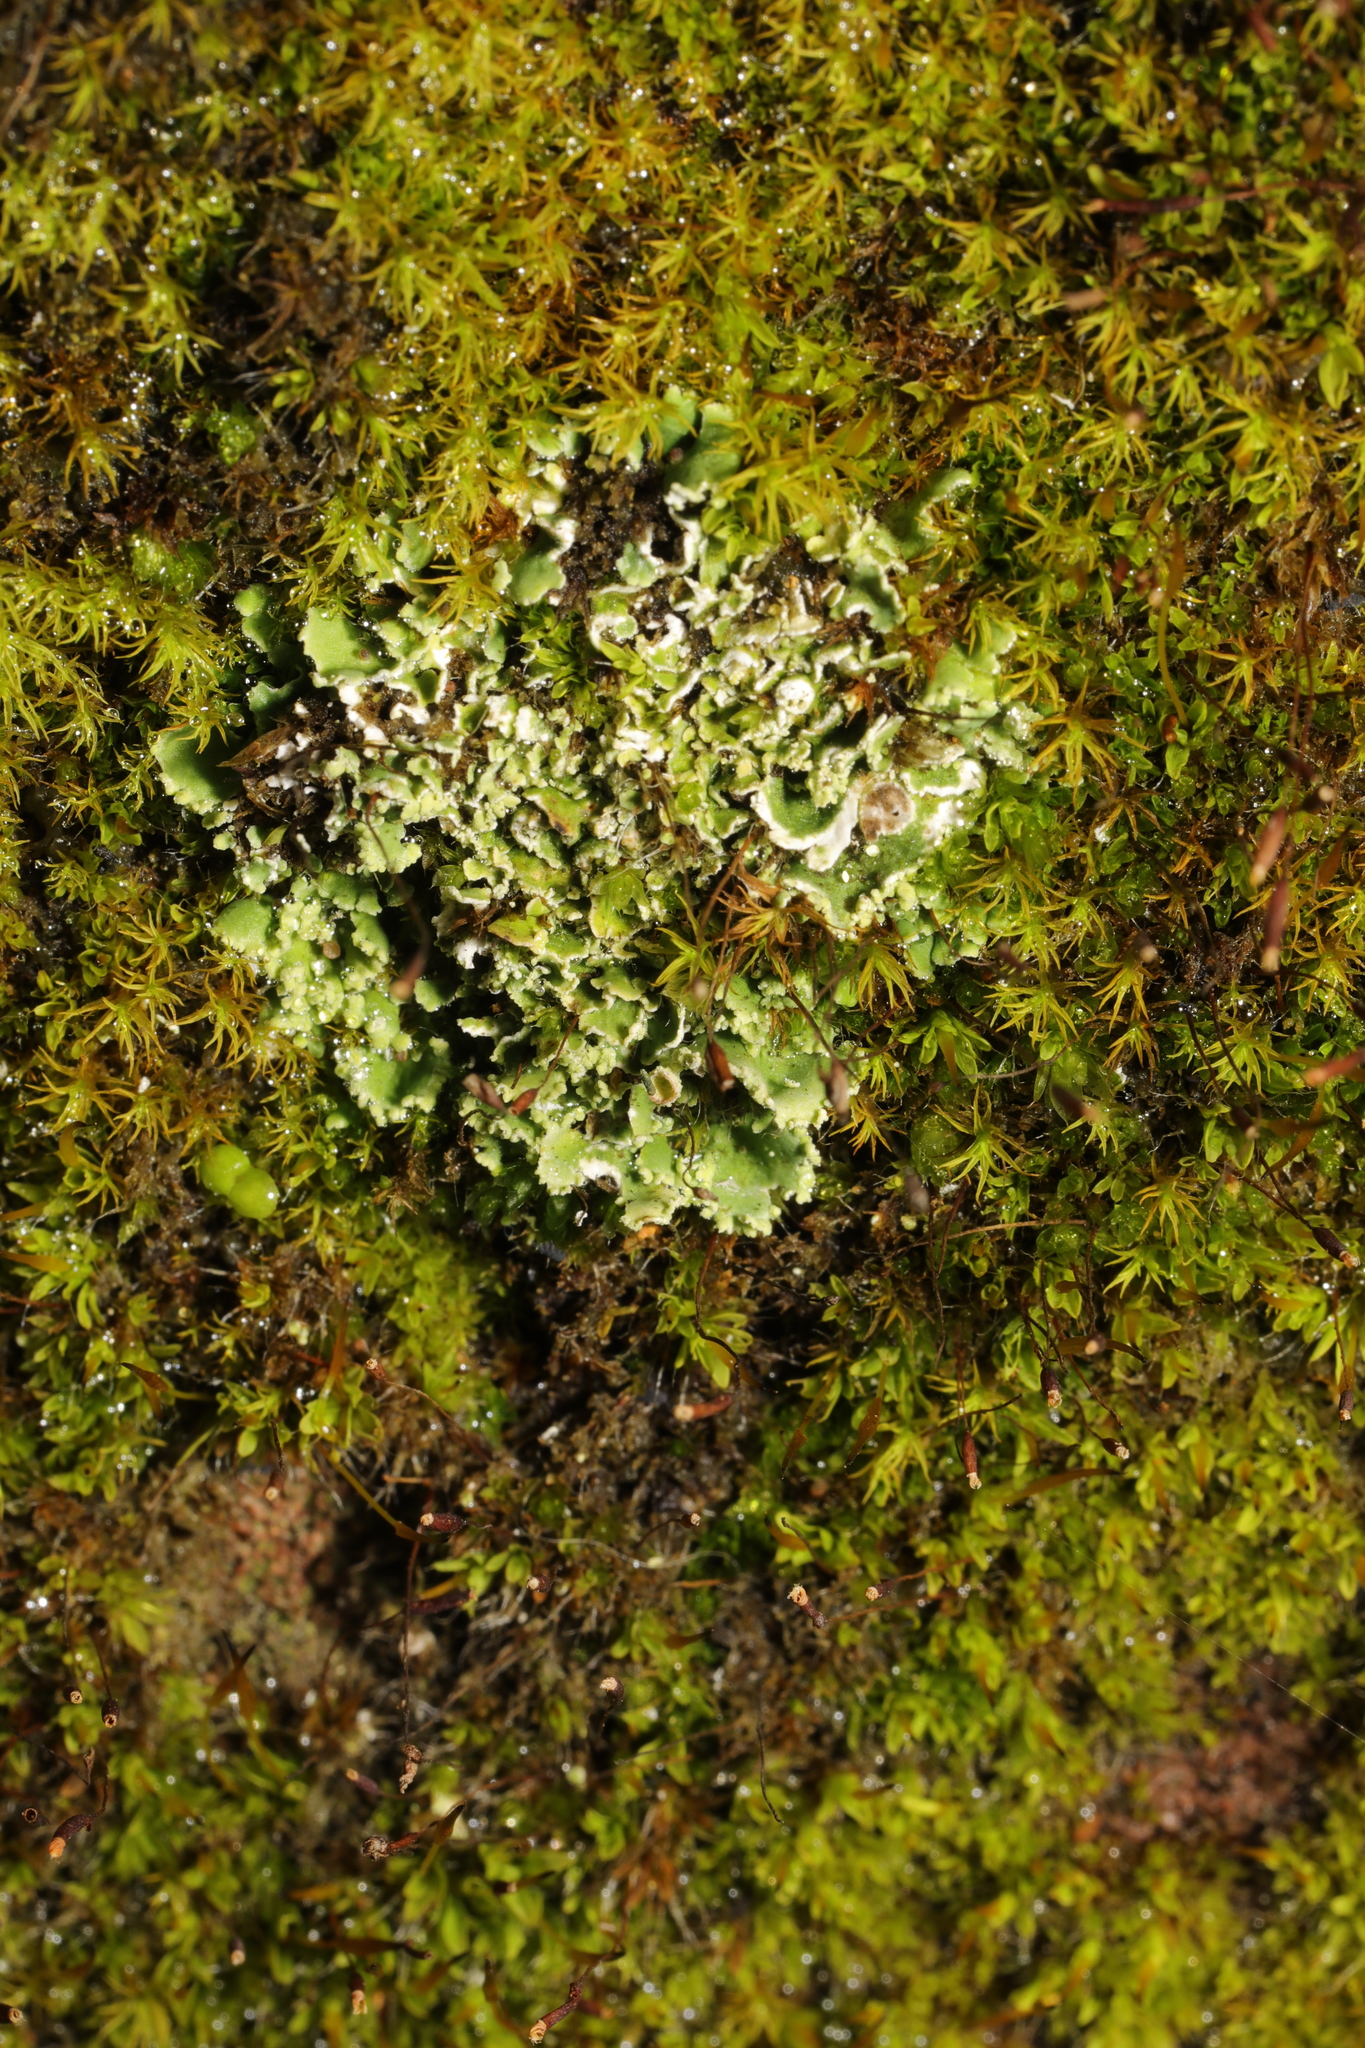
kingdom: Fungi
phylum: Ascomycota
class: Lecanoromycetes
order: Lecanorales
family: Cladoniaceae
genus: Cladonia
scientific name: Cladonia
